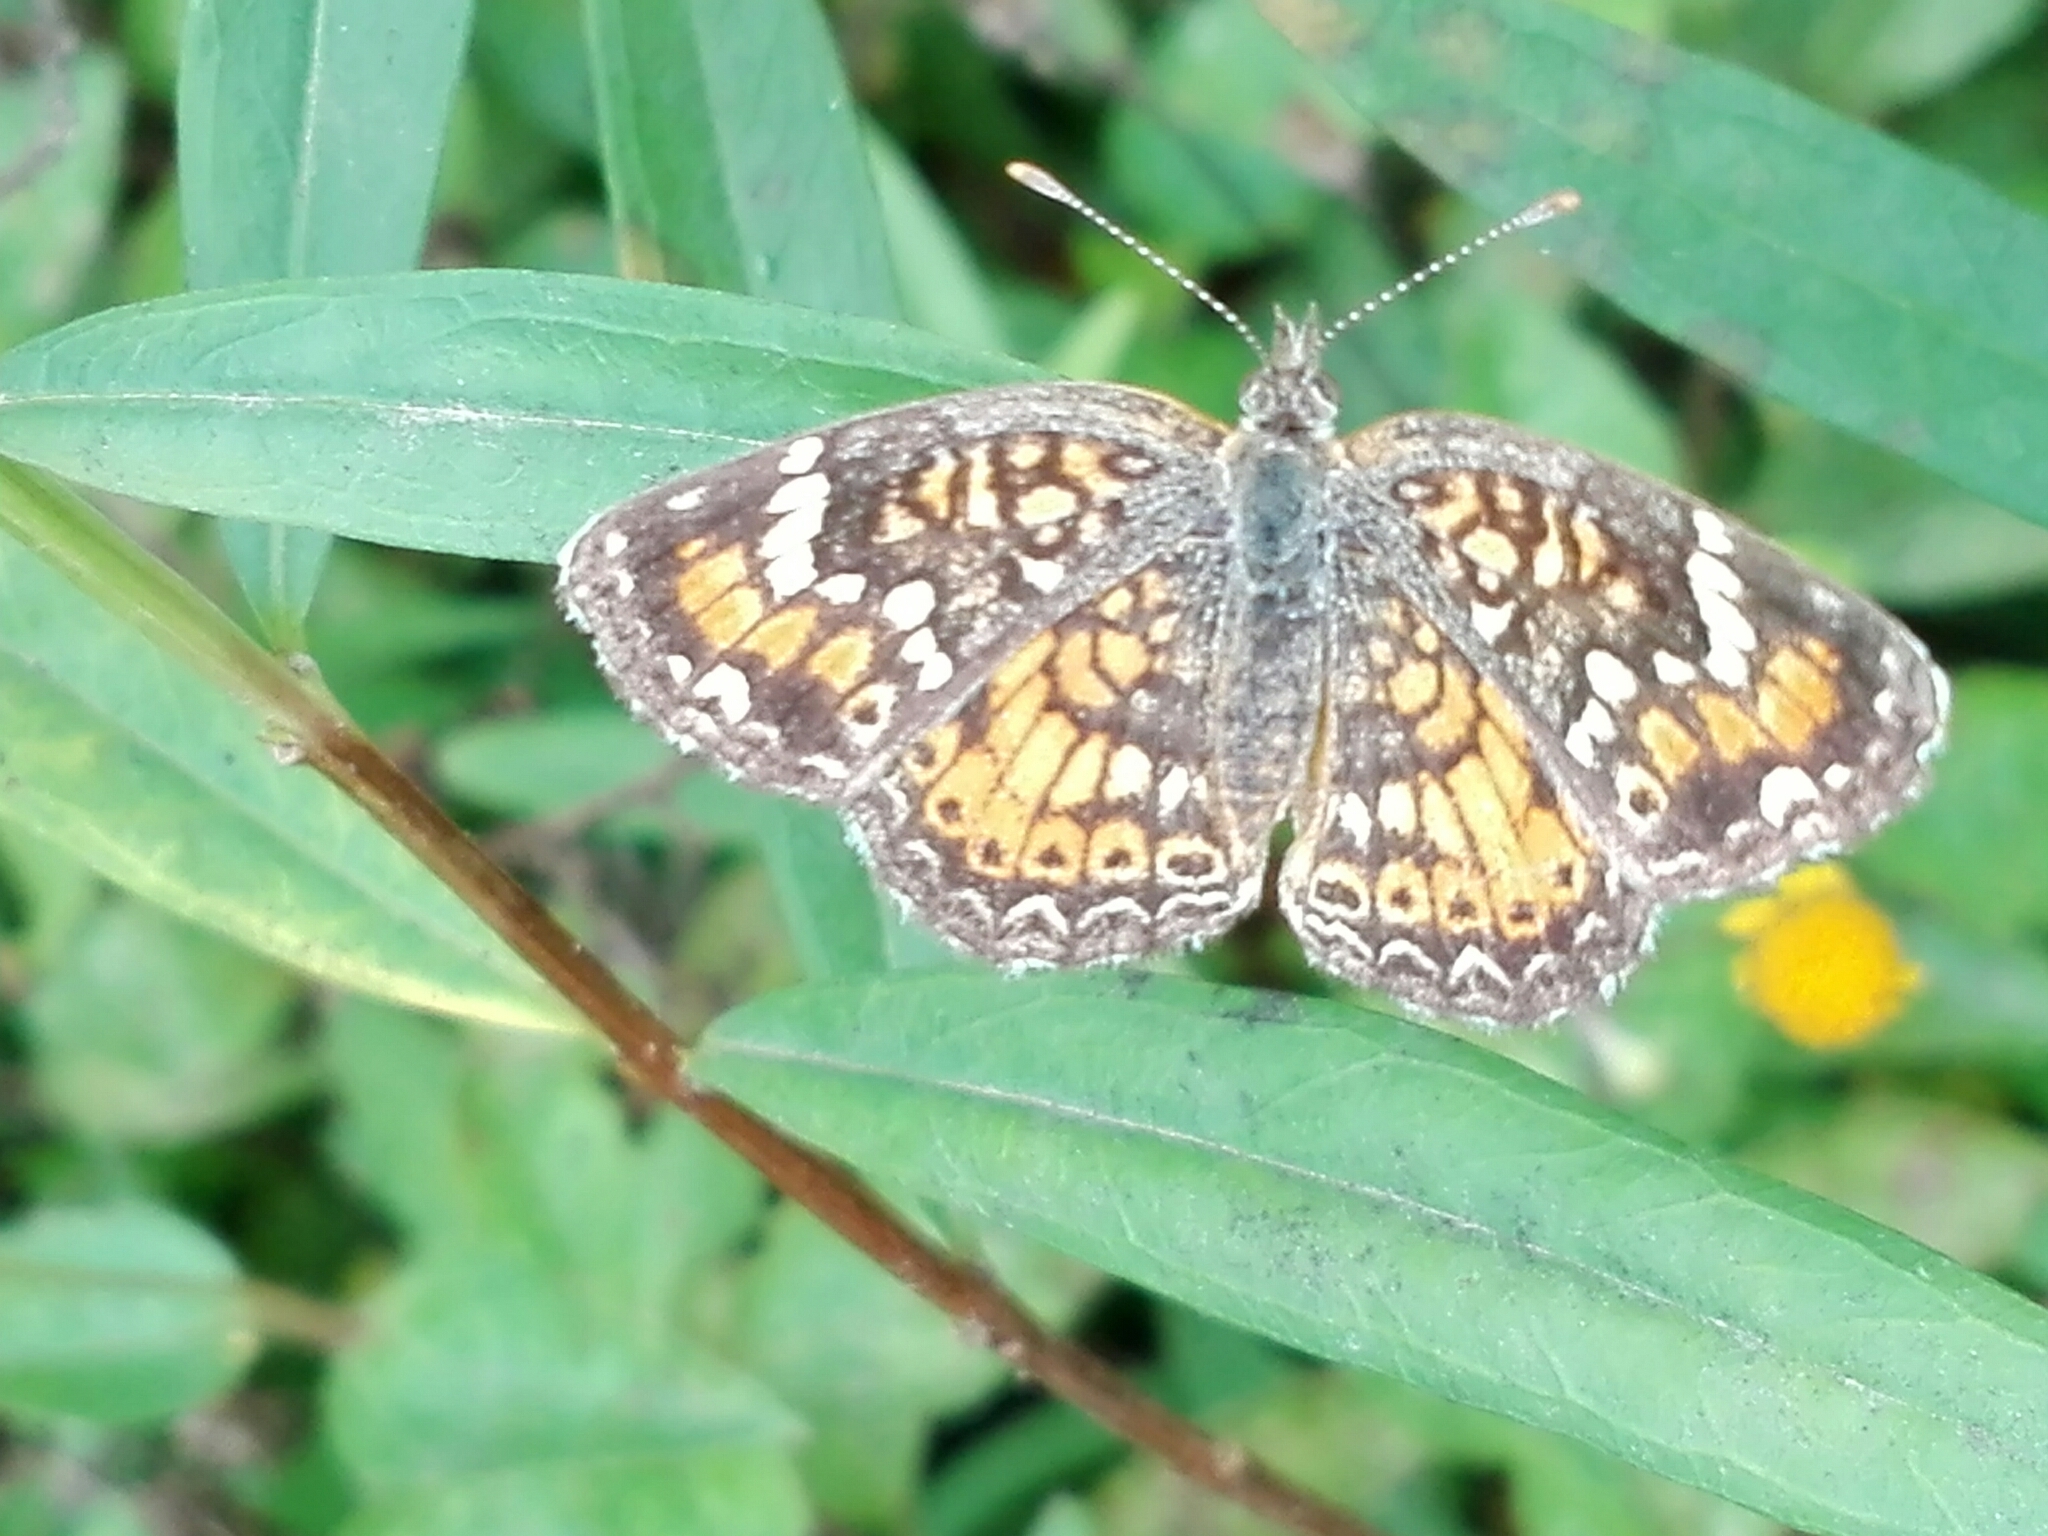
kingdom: Animalia
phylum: Arthropoda
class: Insecta
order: Lepidoptera
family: Nymphalidae
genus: Phyciodes
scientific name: Phyciodes phaon
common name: Phaon crescent
